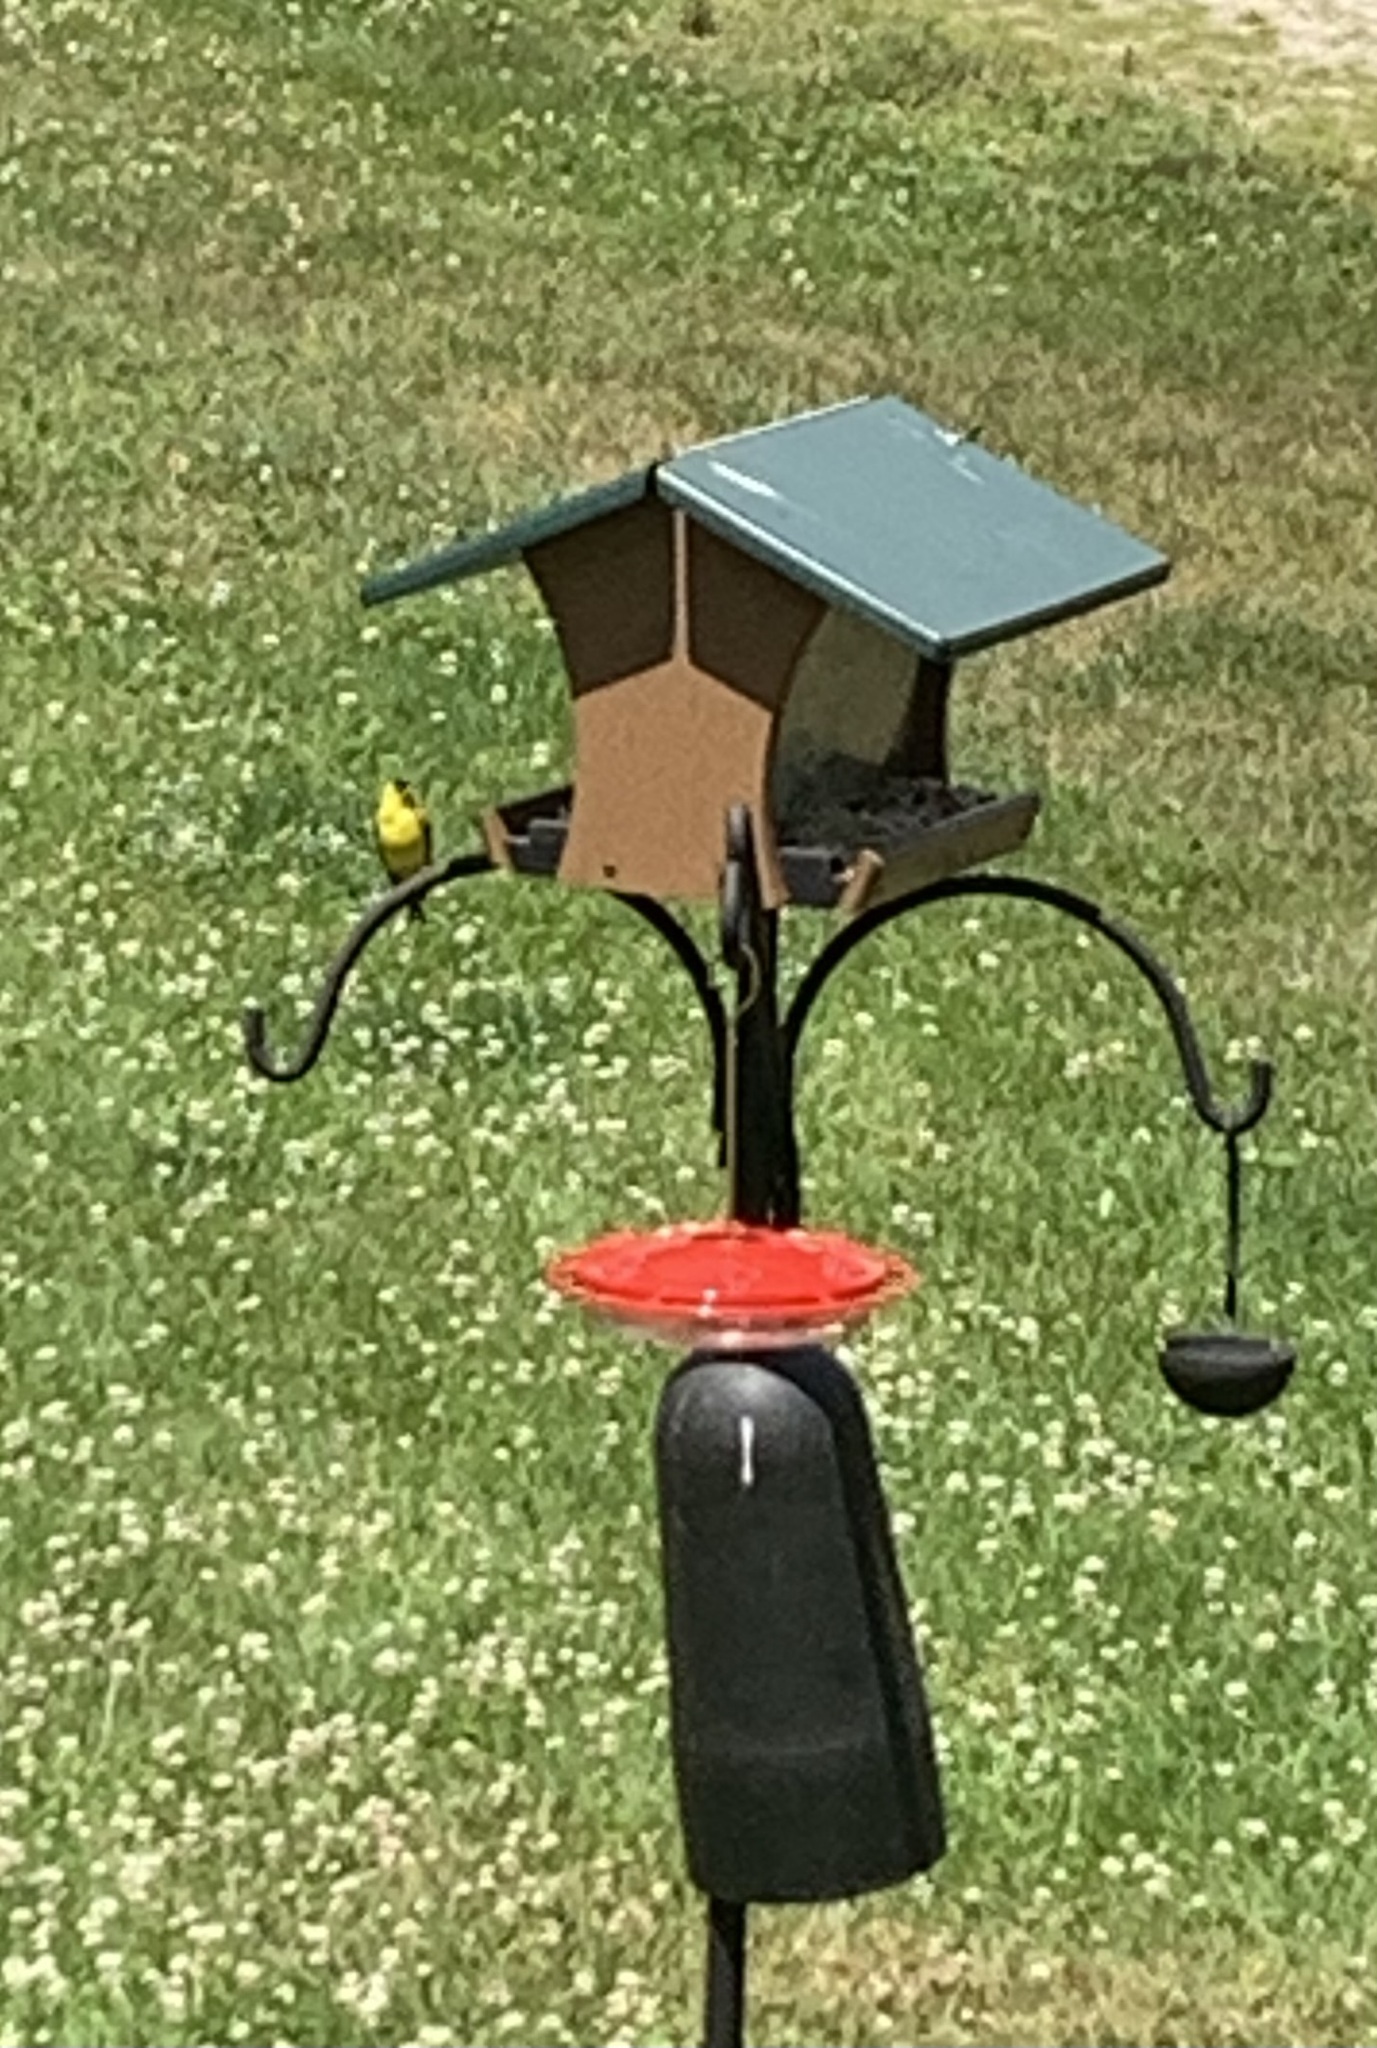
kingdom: Animalia
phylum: Chordata
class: Aves
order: Passeriformes
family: Fringillidae
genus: Spinus
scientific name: Spinus tristis
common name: American goldfinch
